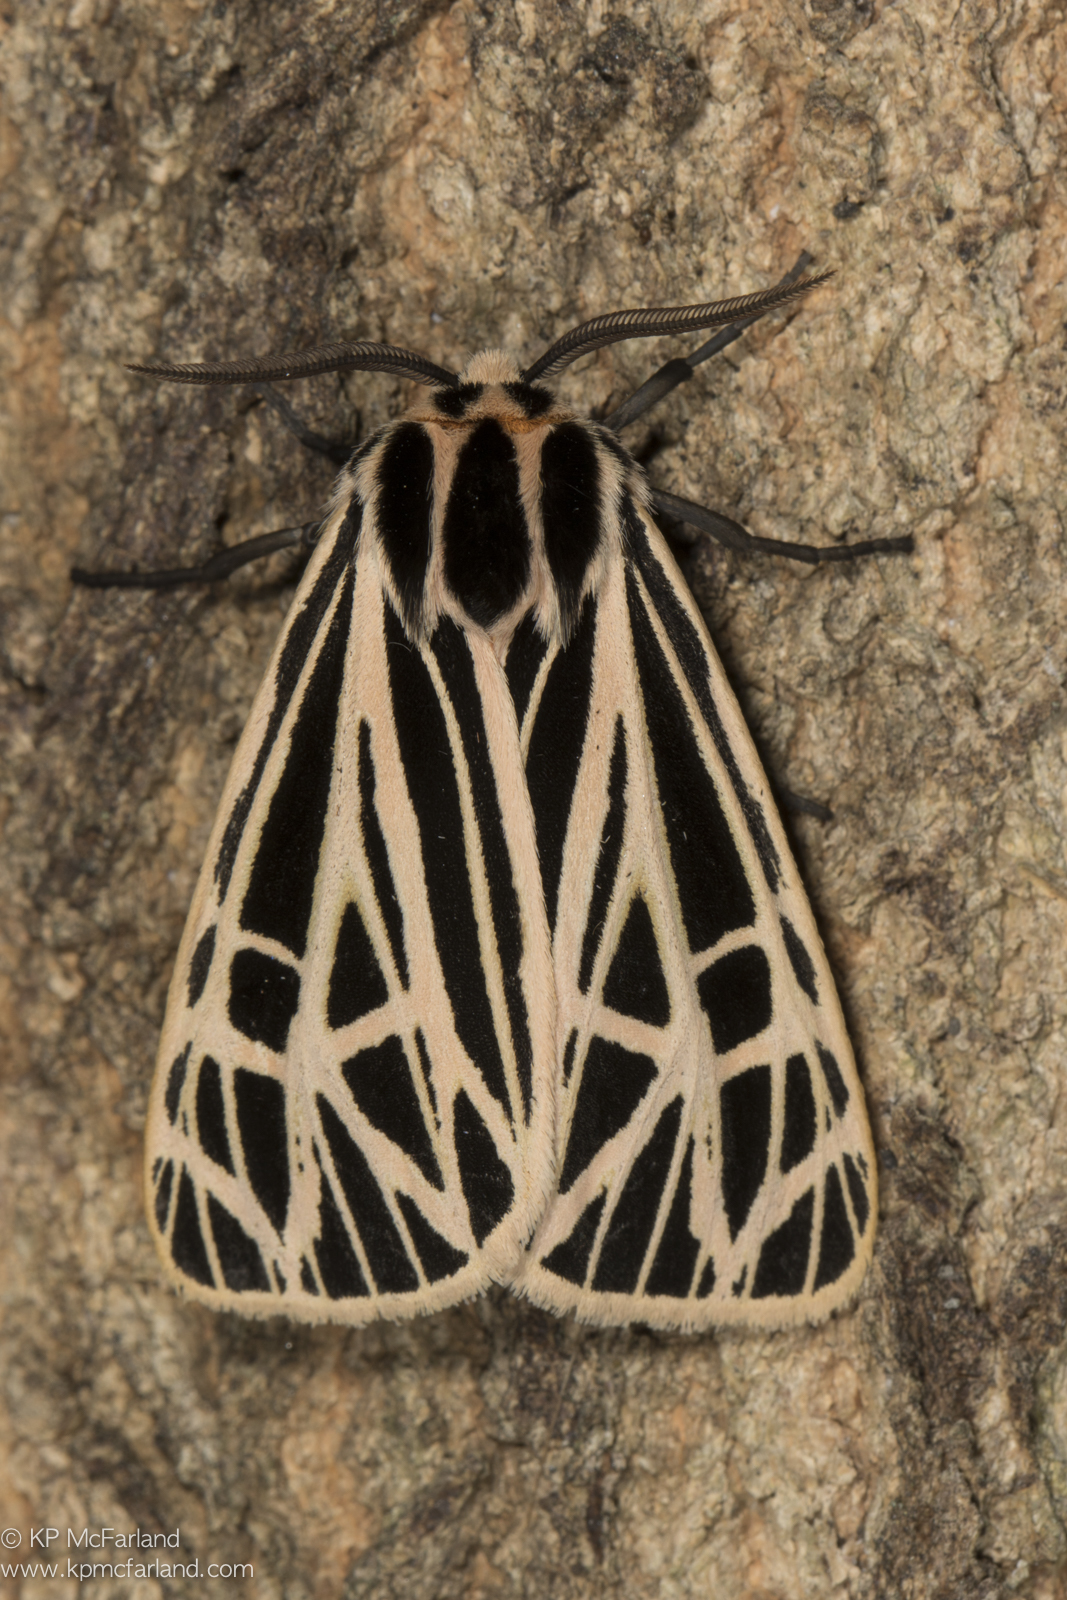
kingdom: Animalia
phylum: Arthropoda
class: Insecta
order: Lepidoptera
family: Erebidae
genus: Grammia
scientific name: Grammia virgo
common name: Virgin tiger moth
